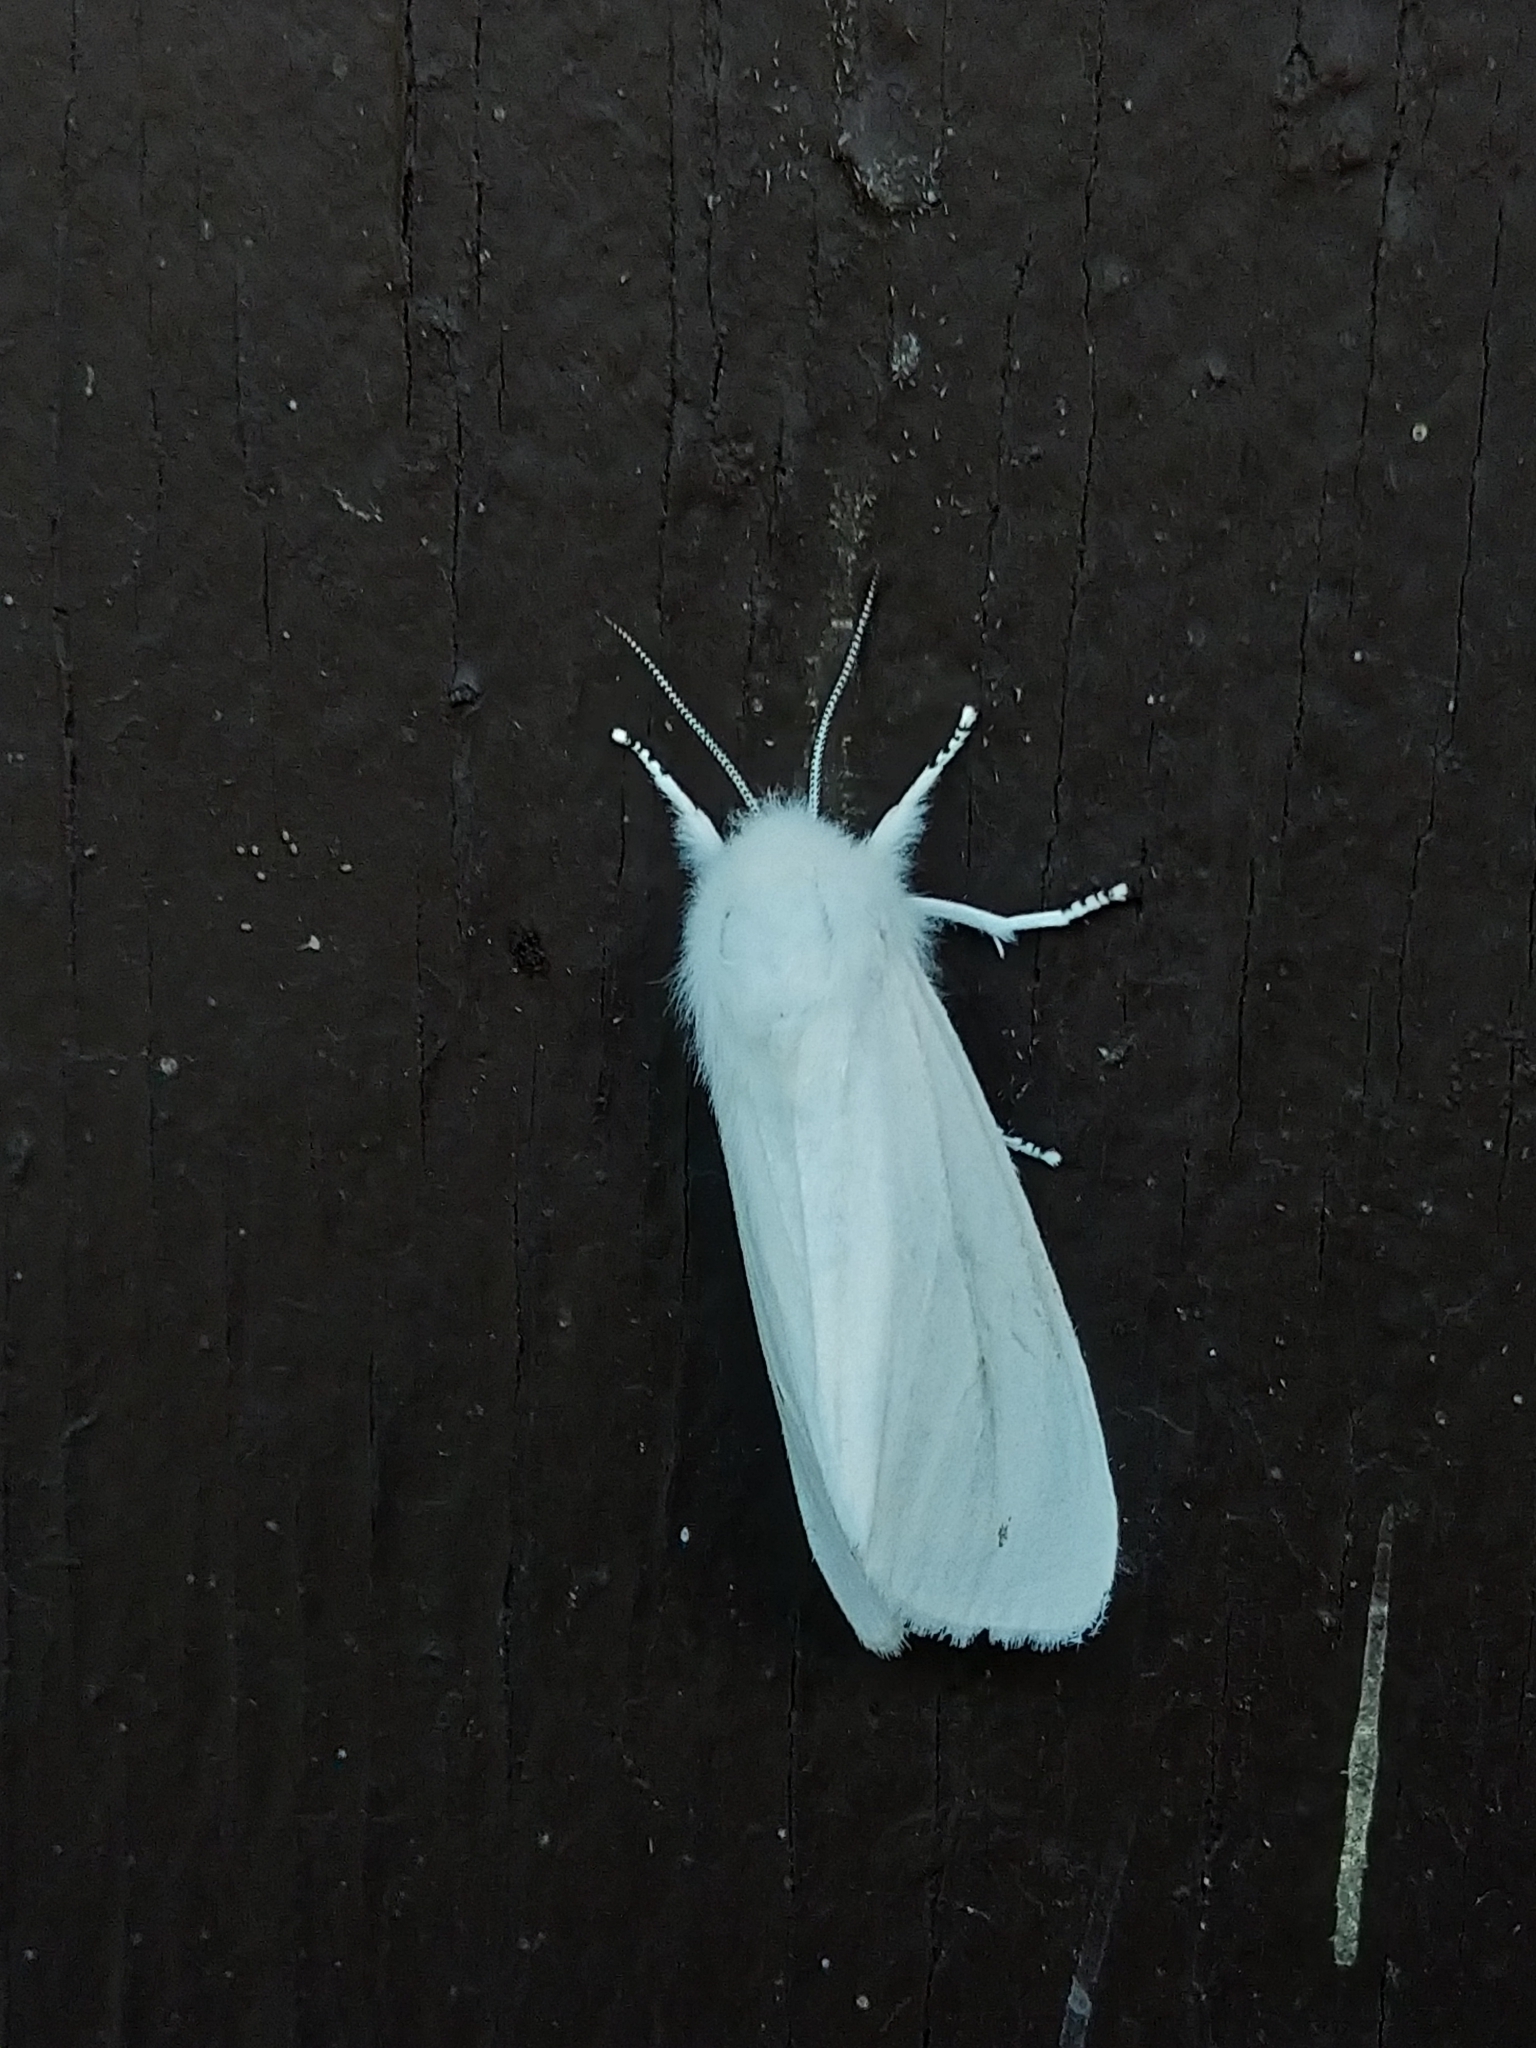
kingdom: Animalia
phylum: Arthropoda
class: Insecta
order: Lepidoptera
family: Erebidae
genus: Spilosoma
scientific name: Spilosoma virginica
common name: Virginia tiger moth
